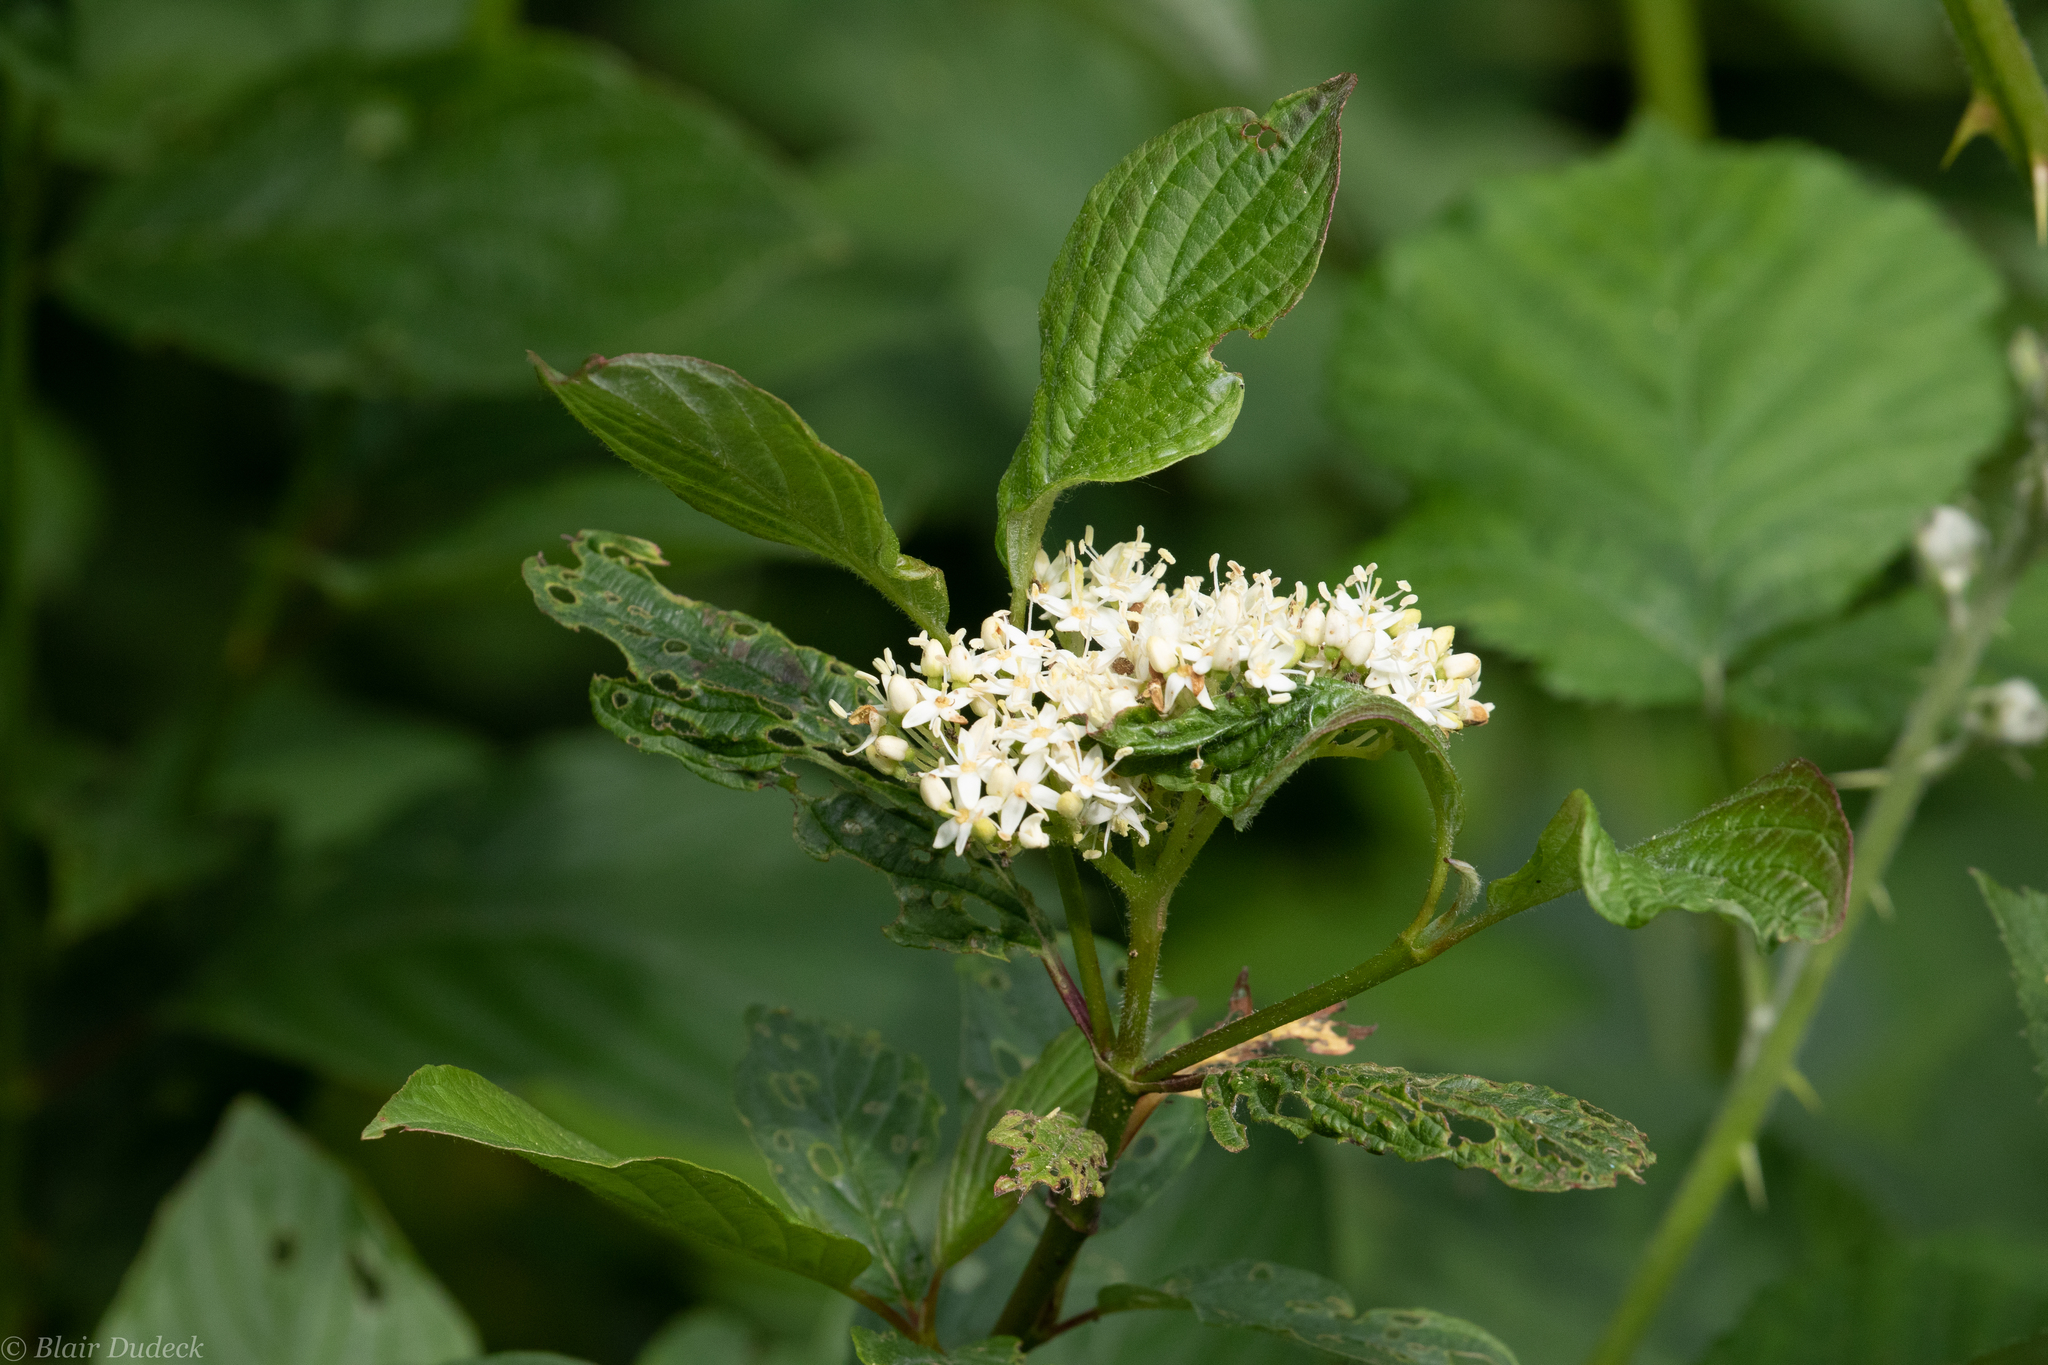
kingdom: Plantae
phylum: Tracheophyta
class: Magnoliopsida
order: Cornales
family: Cornaceae
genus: Cornus
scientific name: Cornus sericea
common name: Red-osier dogwood
